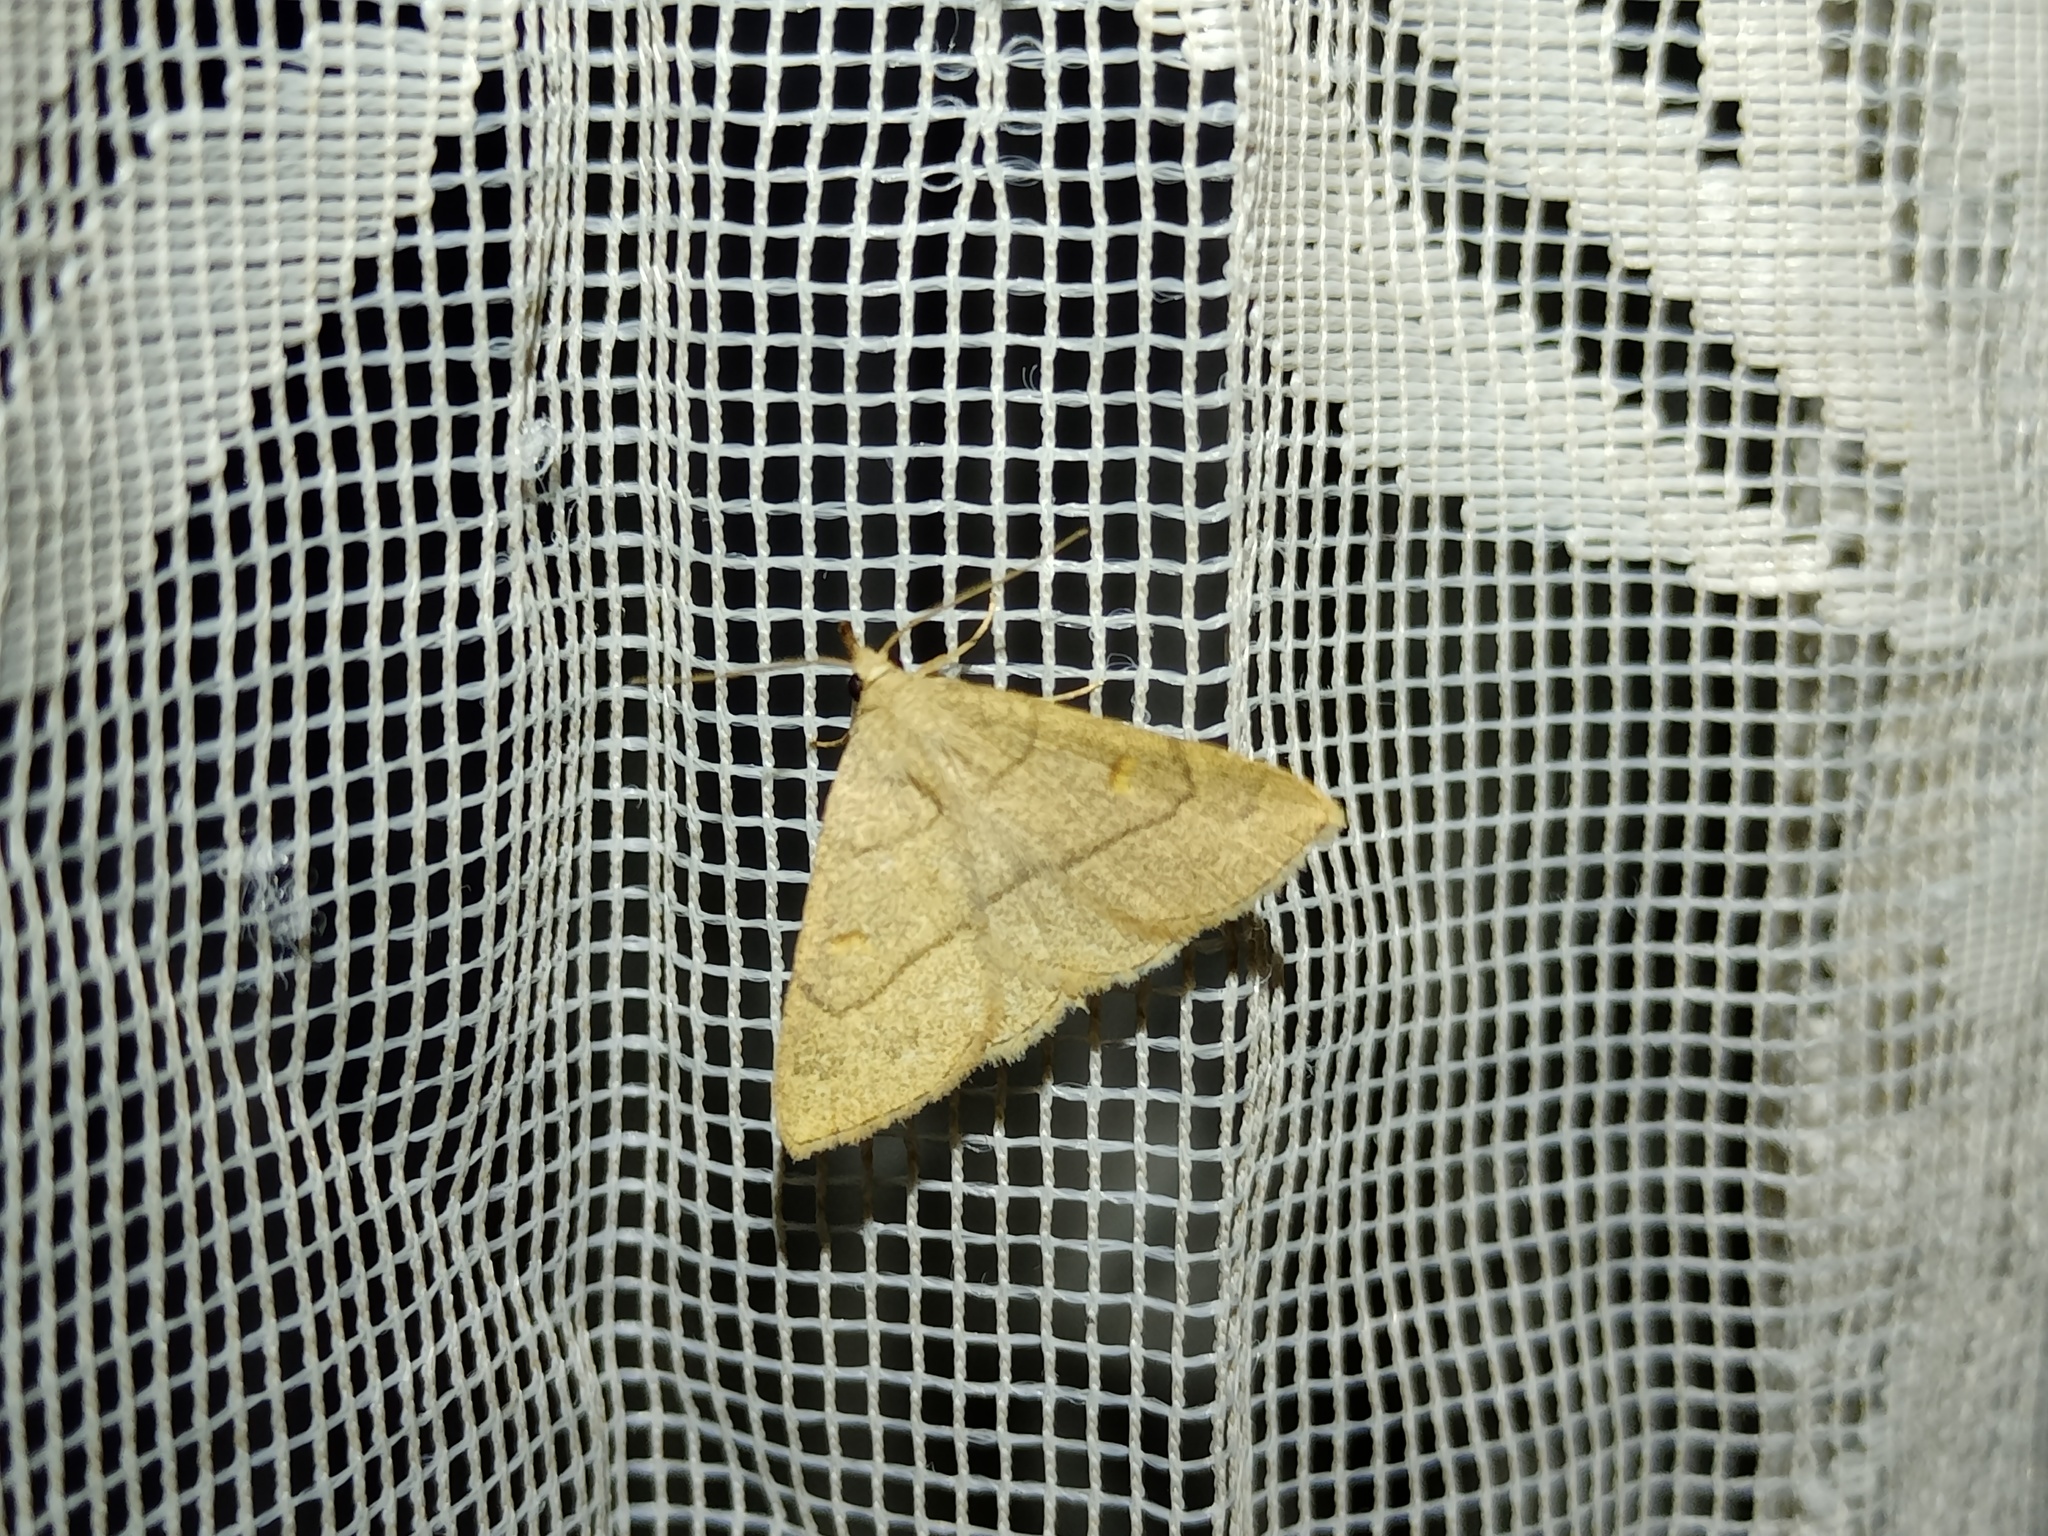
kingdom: Animalia
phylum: Arthropoda
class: Insecta
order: Lepidoptera
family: Erebidae
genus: Paracolax
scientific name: Paracolax tristalis
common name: Clay fan-foot
